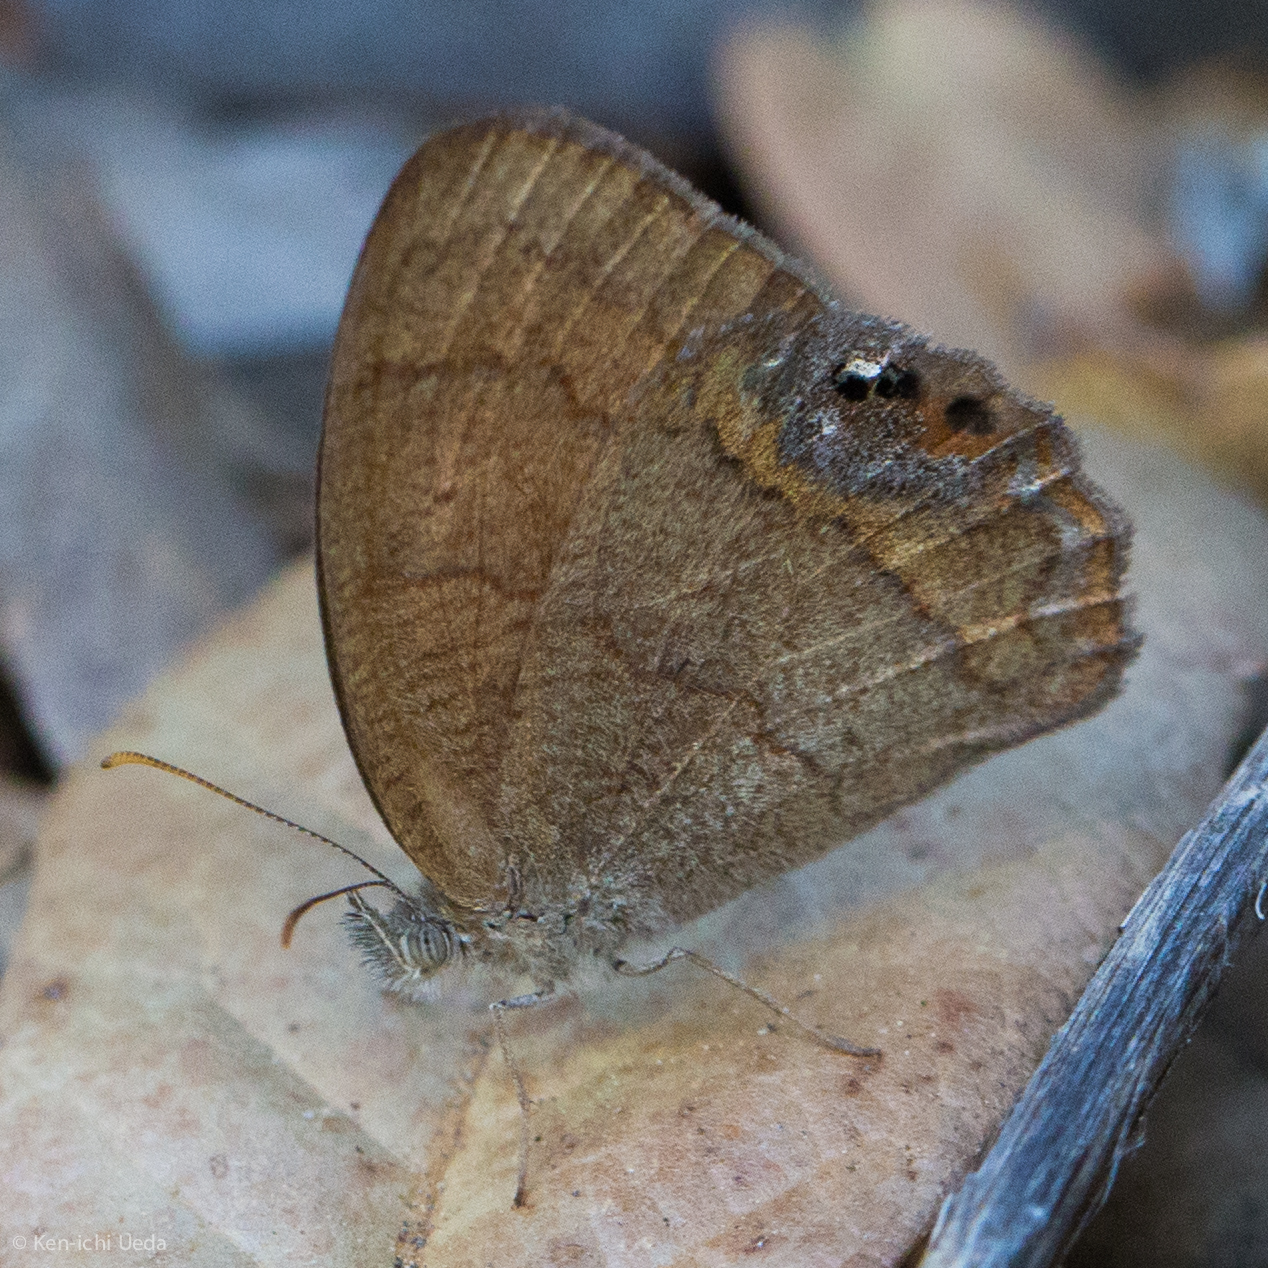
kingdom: Animalia
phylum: Arthropoda
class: Insecta
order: Lepidoptera
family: Nymphalidae
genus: Euptychia
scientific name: Euptychia pyracmon
